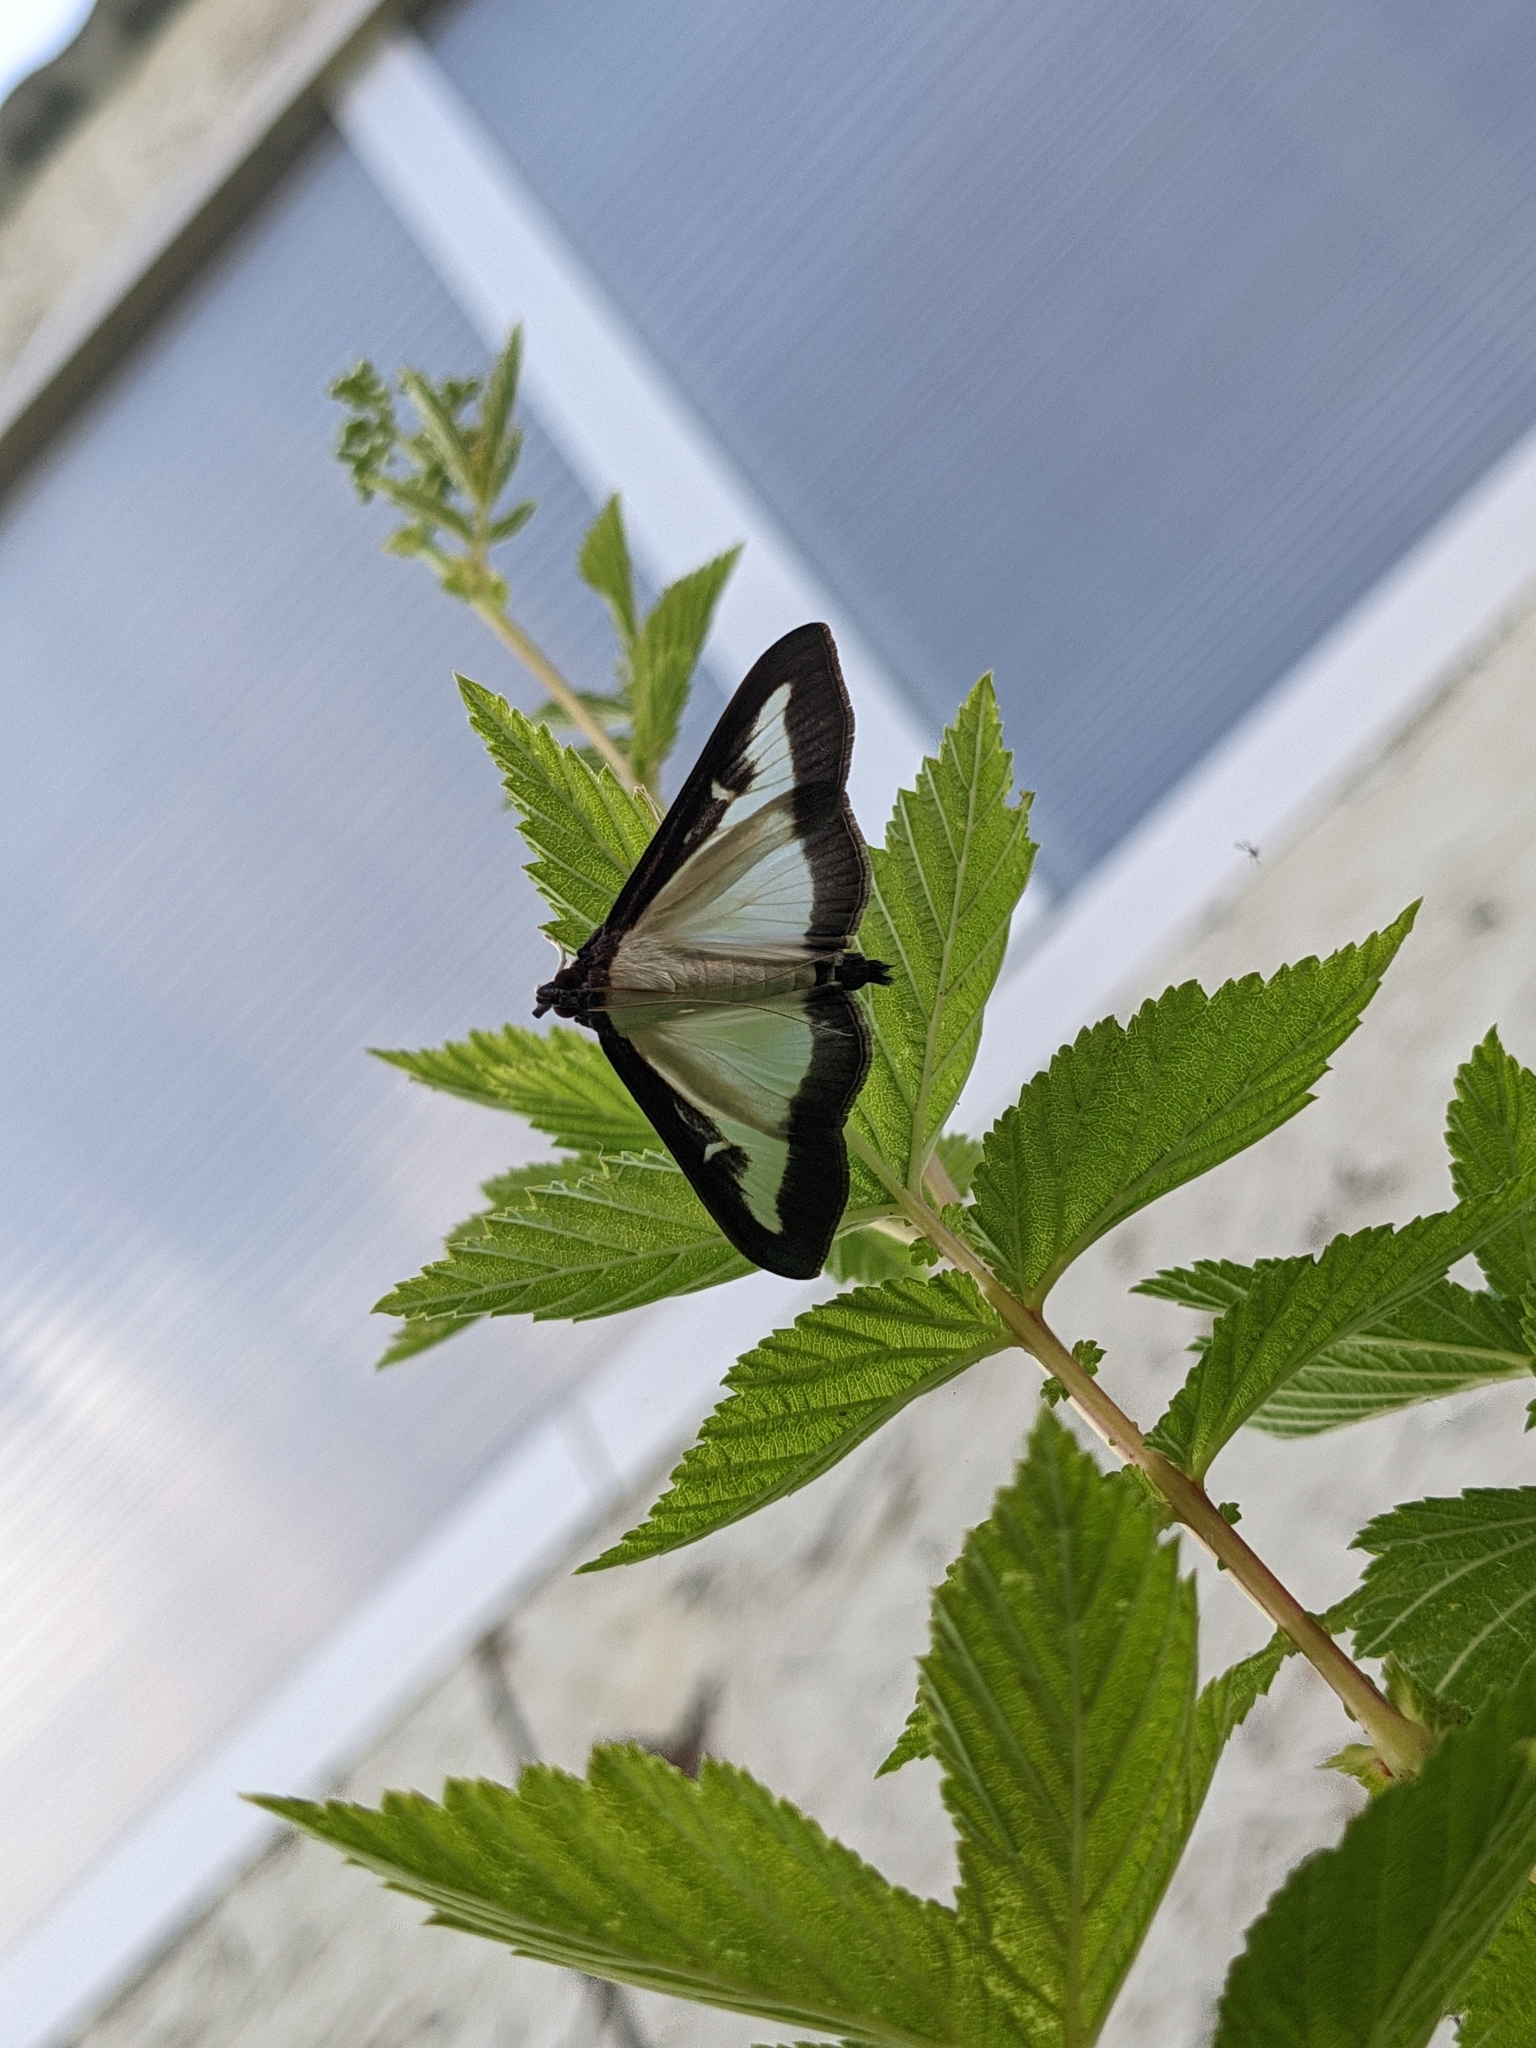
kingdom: Animalia
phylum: Arthropoda
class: Insecta
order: Lepidoptera
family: Crambidae
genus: Cydalima
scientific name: Cydalima perspectalis
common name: Box tree moth
